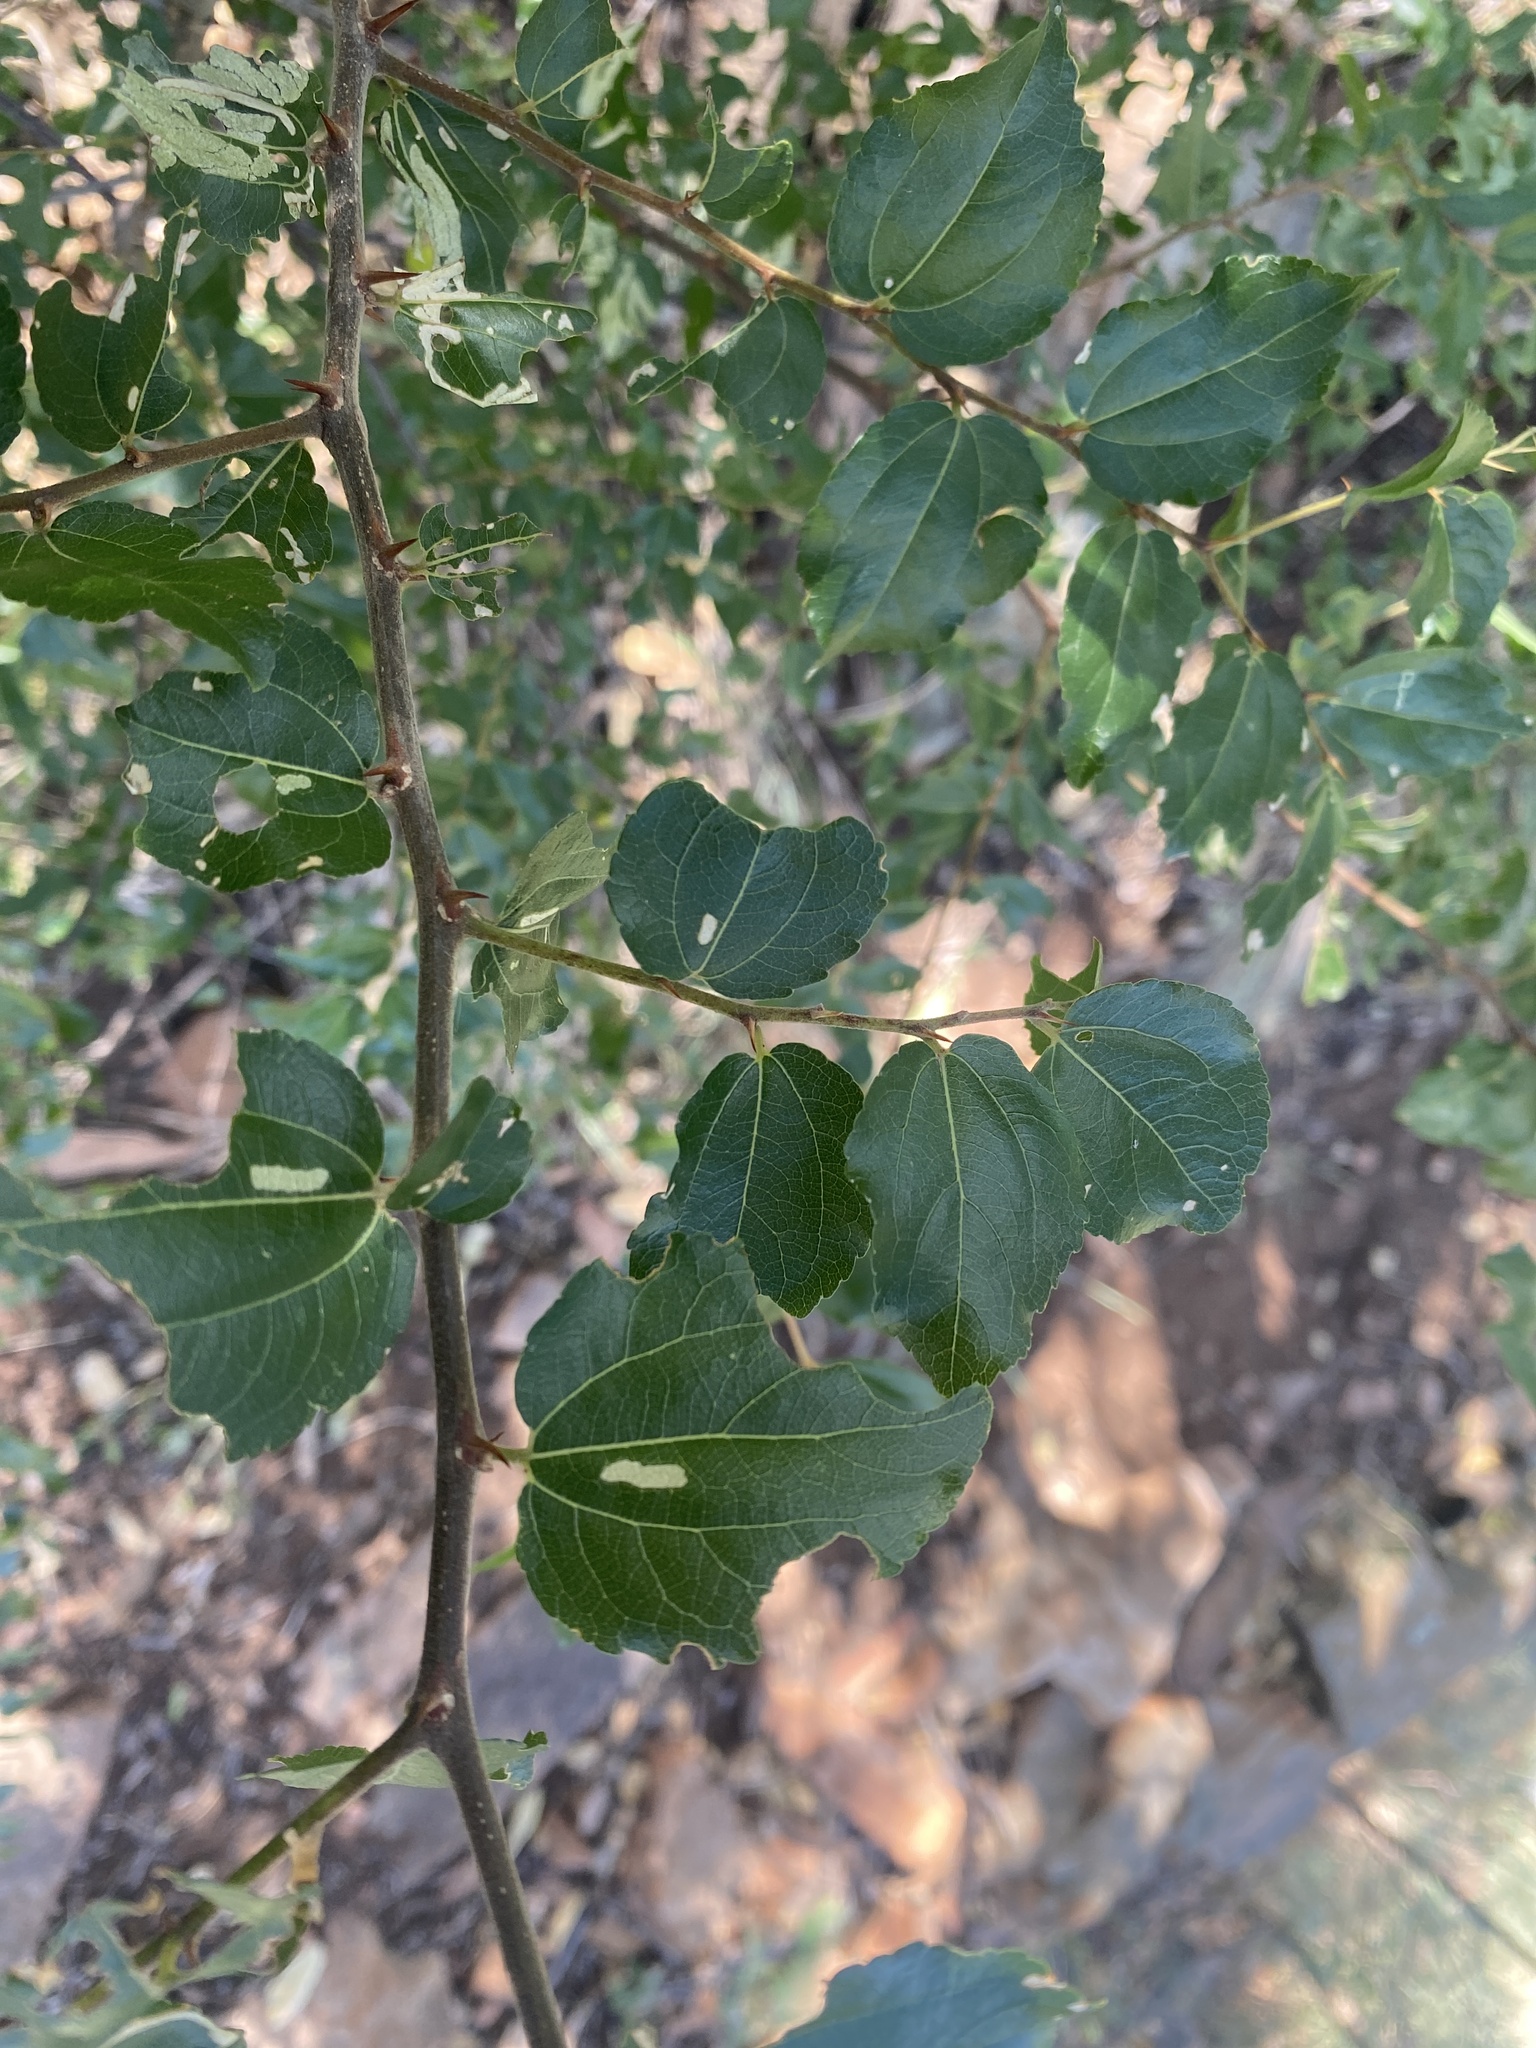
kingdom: Plantae
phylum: Tracheophyta
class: Magnoliopsida
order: Rosales
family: Rhamnaceae
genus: Ziziphus
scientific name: Ziziphus mucronata
